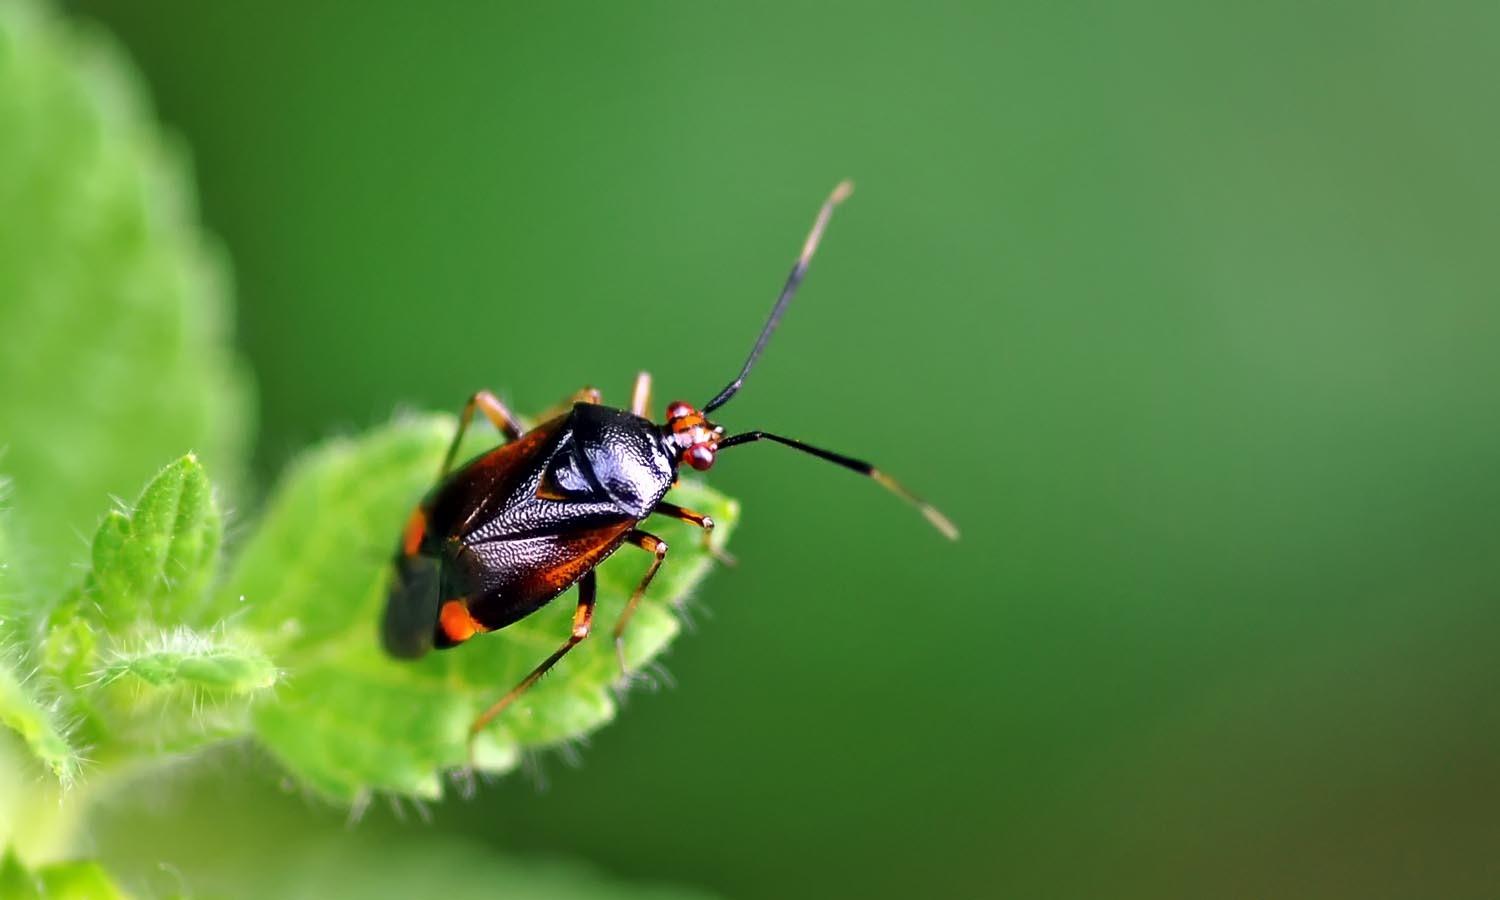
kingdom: Animalia
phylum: Arthropoda
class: Insecta
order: Hemiptera
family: Miridae
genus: Deraeocoris
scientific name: Deraeocoris ruber
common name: Plant bug
